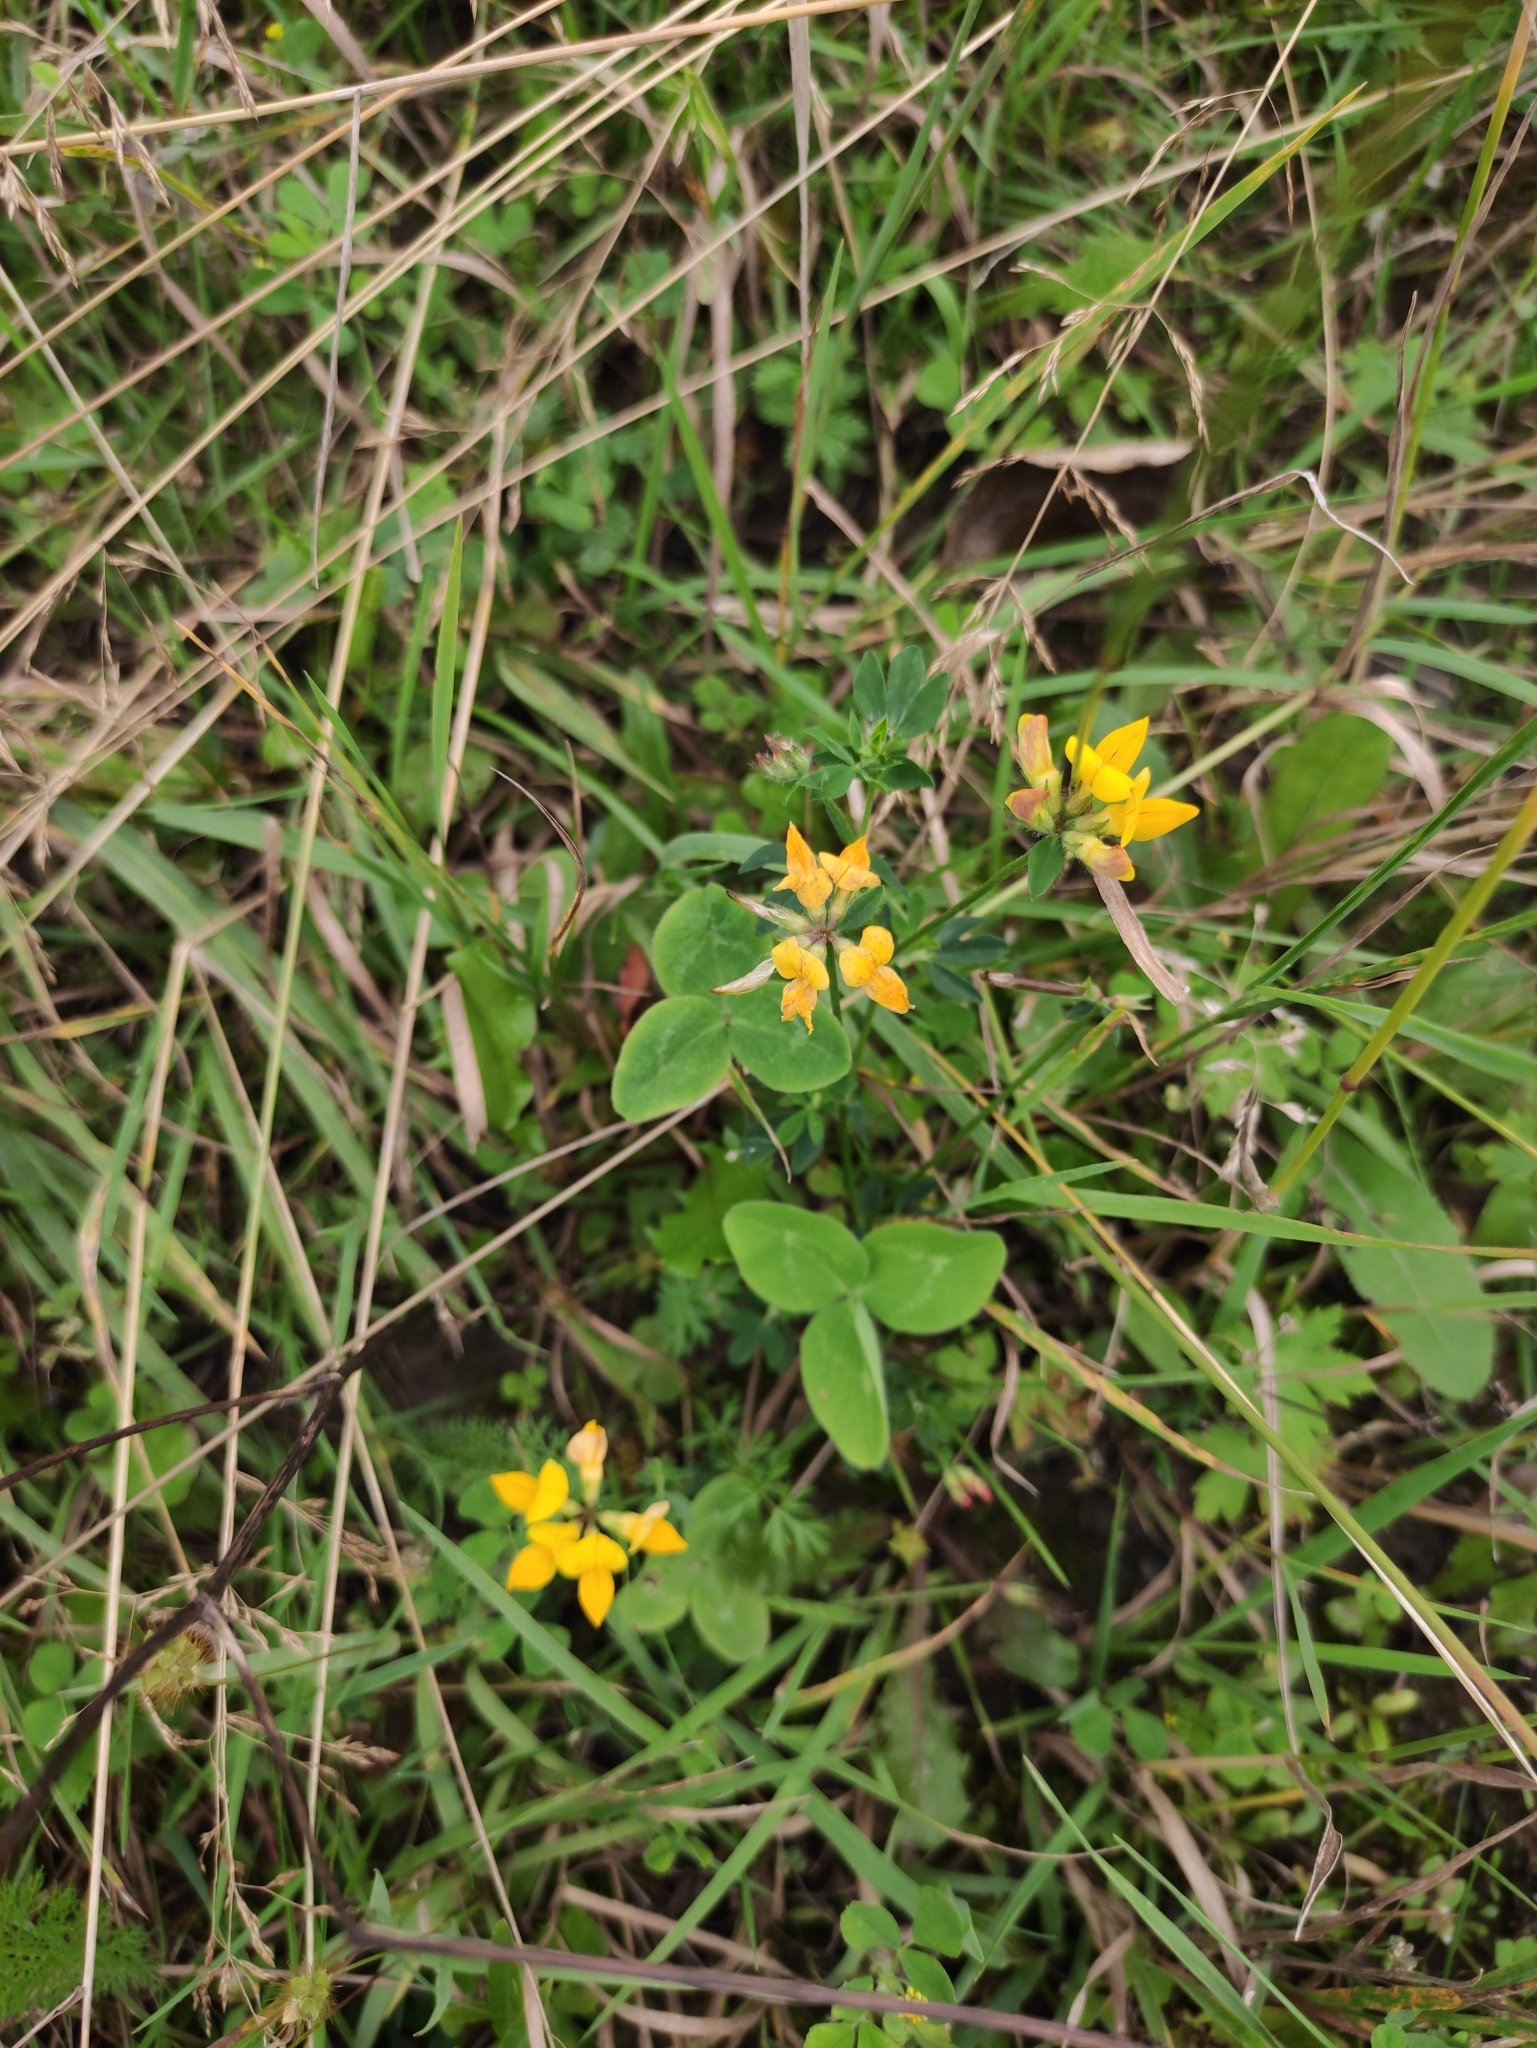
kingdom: Plantae
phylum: Tracheophyta
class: Magnoliopsida
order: Fabales
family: Fabaceae
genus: Lotus
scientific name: Lotus corniculatus
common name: Common bird's-foot-trefoil
